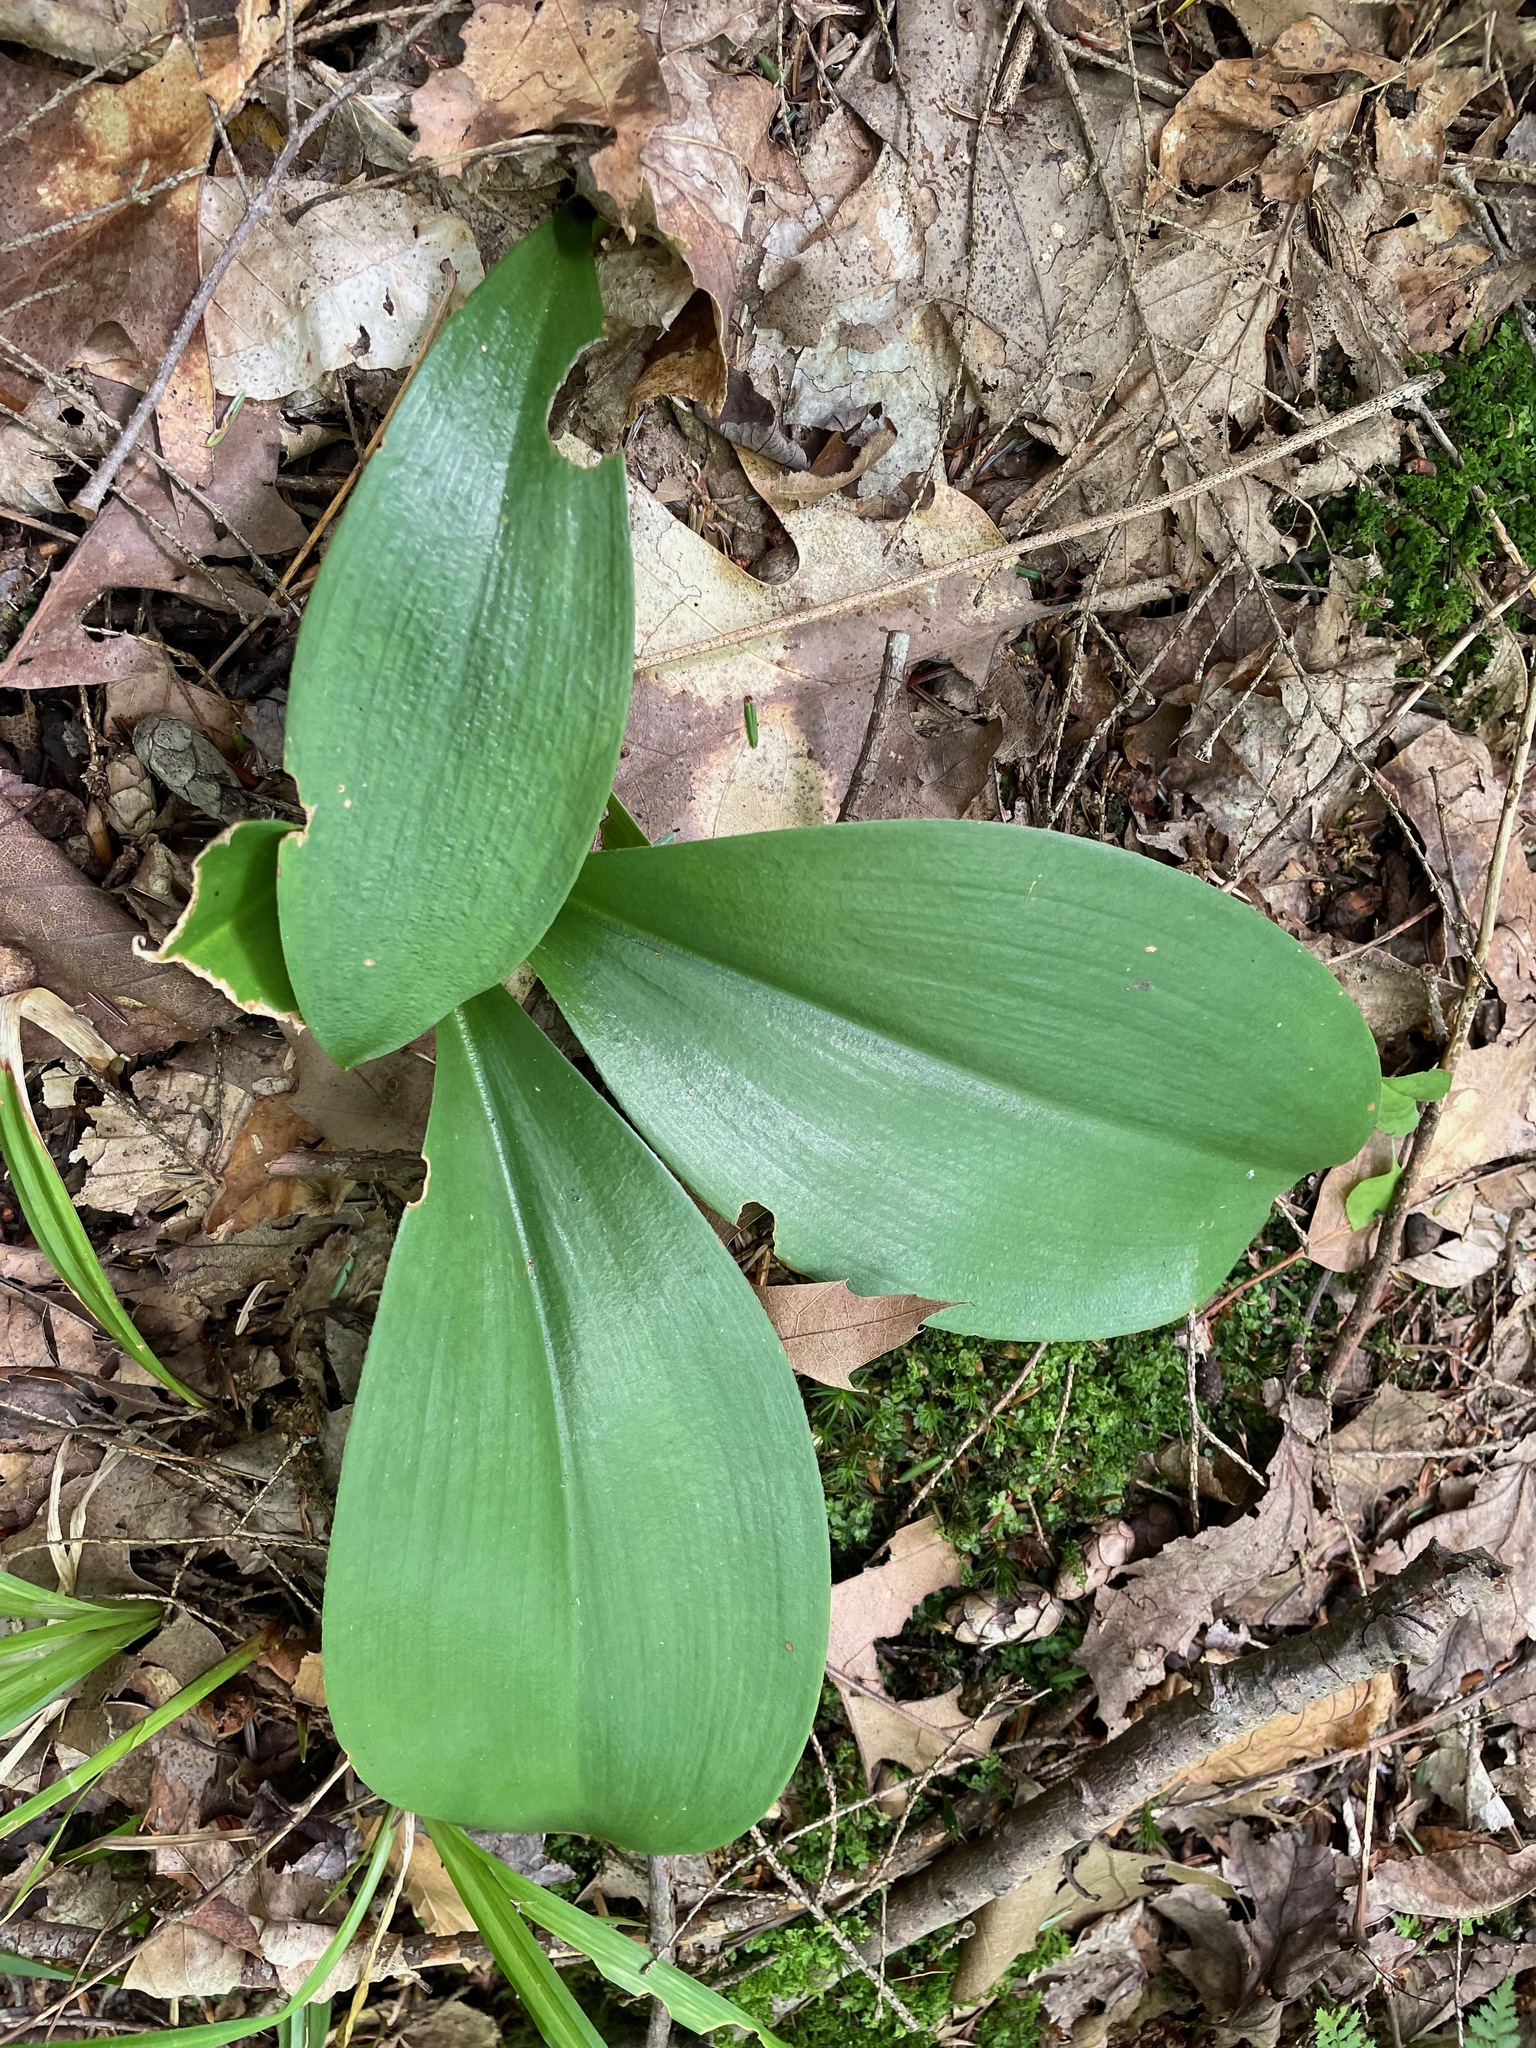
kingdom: Plantae
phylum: Tracheophyta
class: Liliopsida
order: Liliales
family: Liliaceae
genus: Clintonia
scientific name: Clintonia borealis
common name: Yellow clintonia
